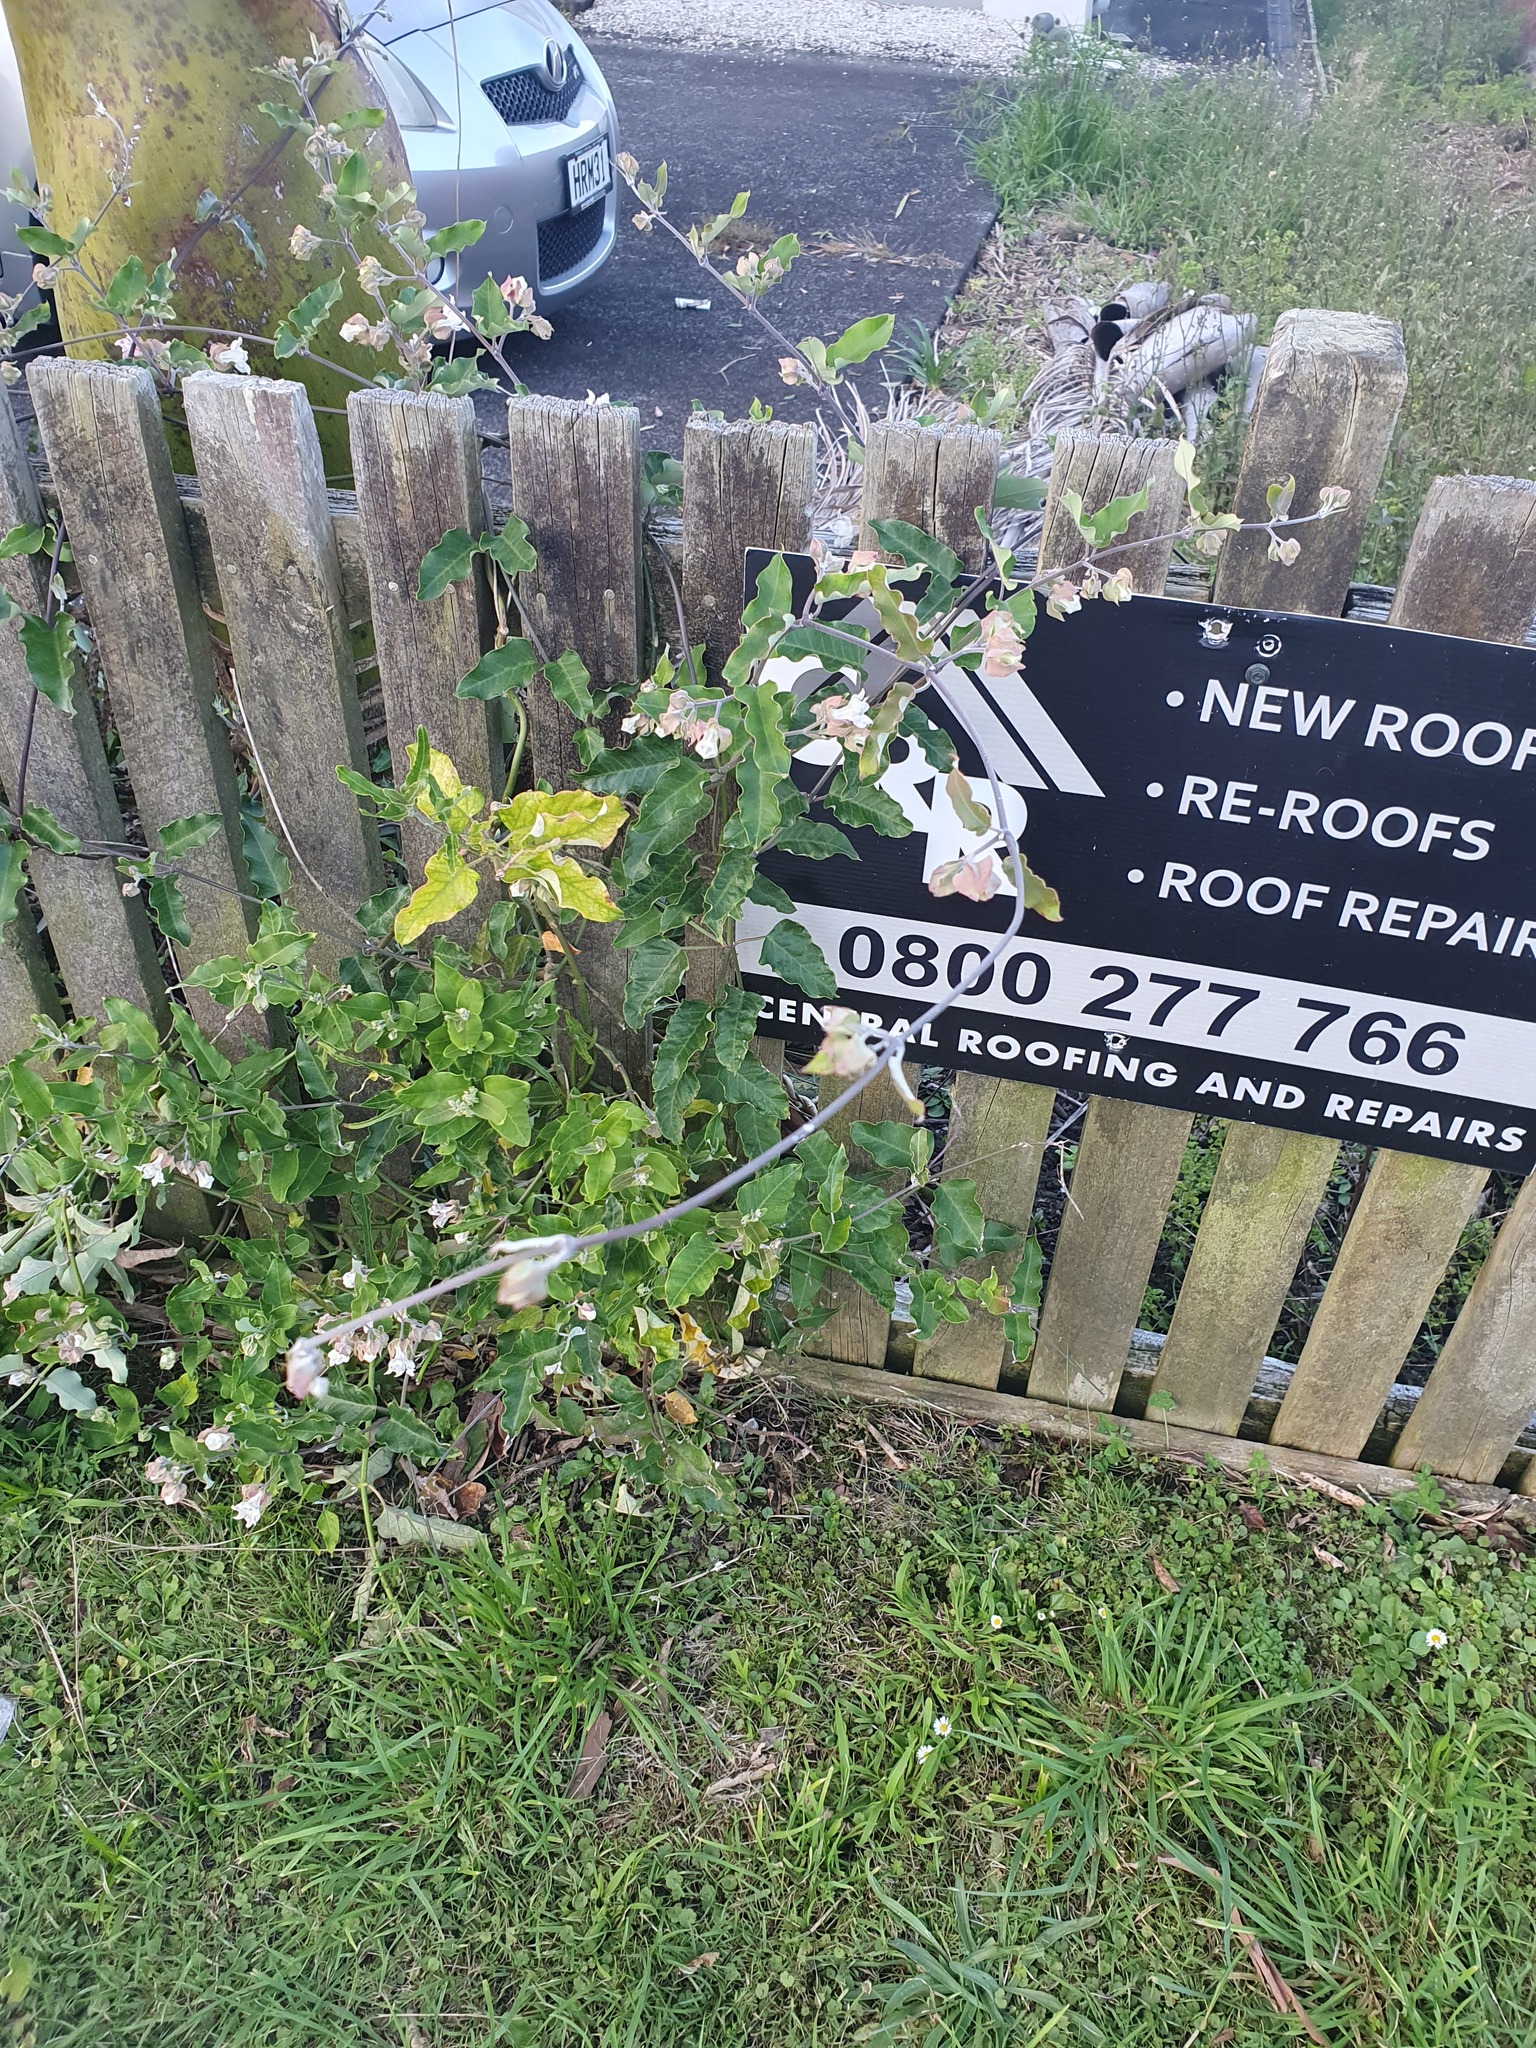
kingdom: Plantae
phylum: Tracheophyta
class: Magnoliopsida
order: Gentianales
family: Apocynaceae
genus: Araujia
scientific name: Araujia sericifera
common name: White bladderflower
